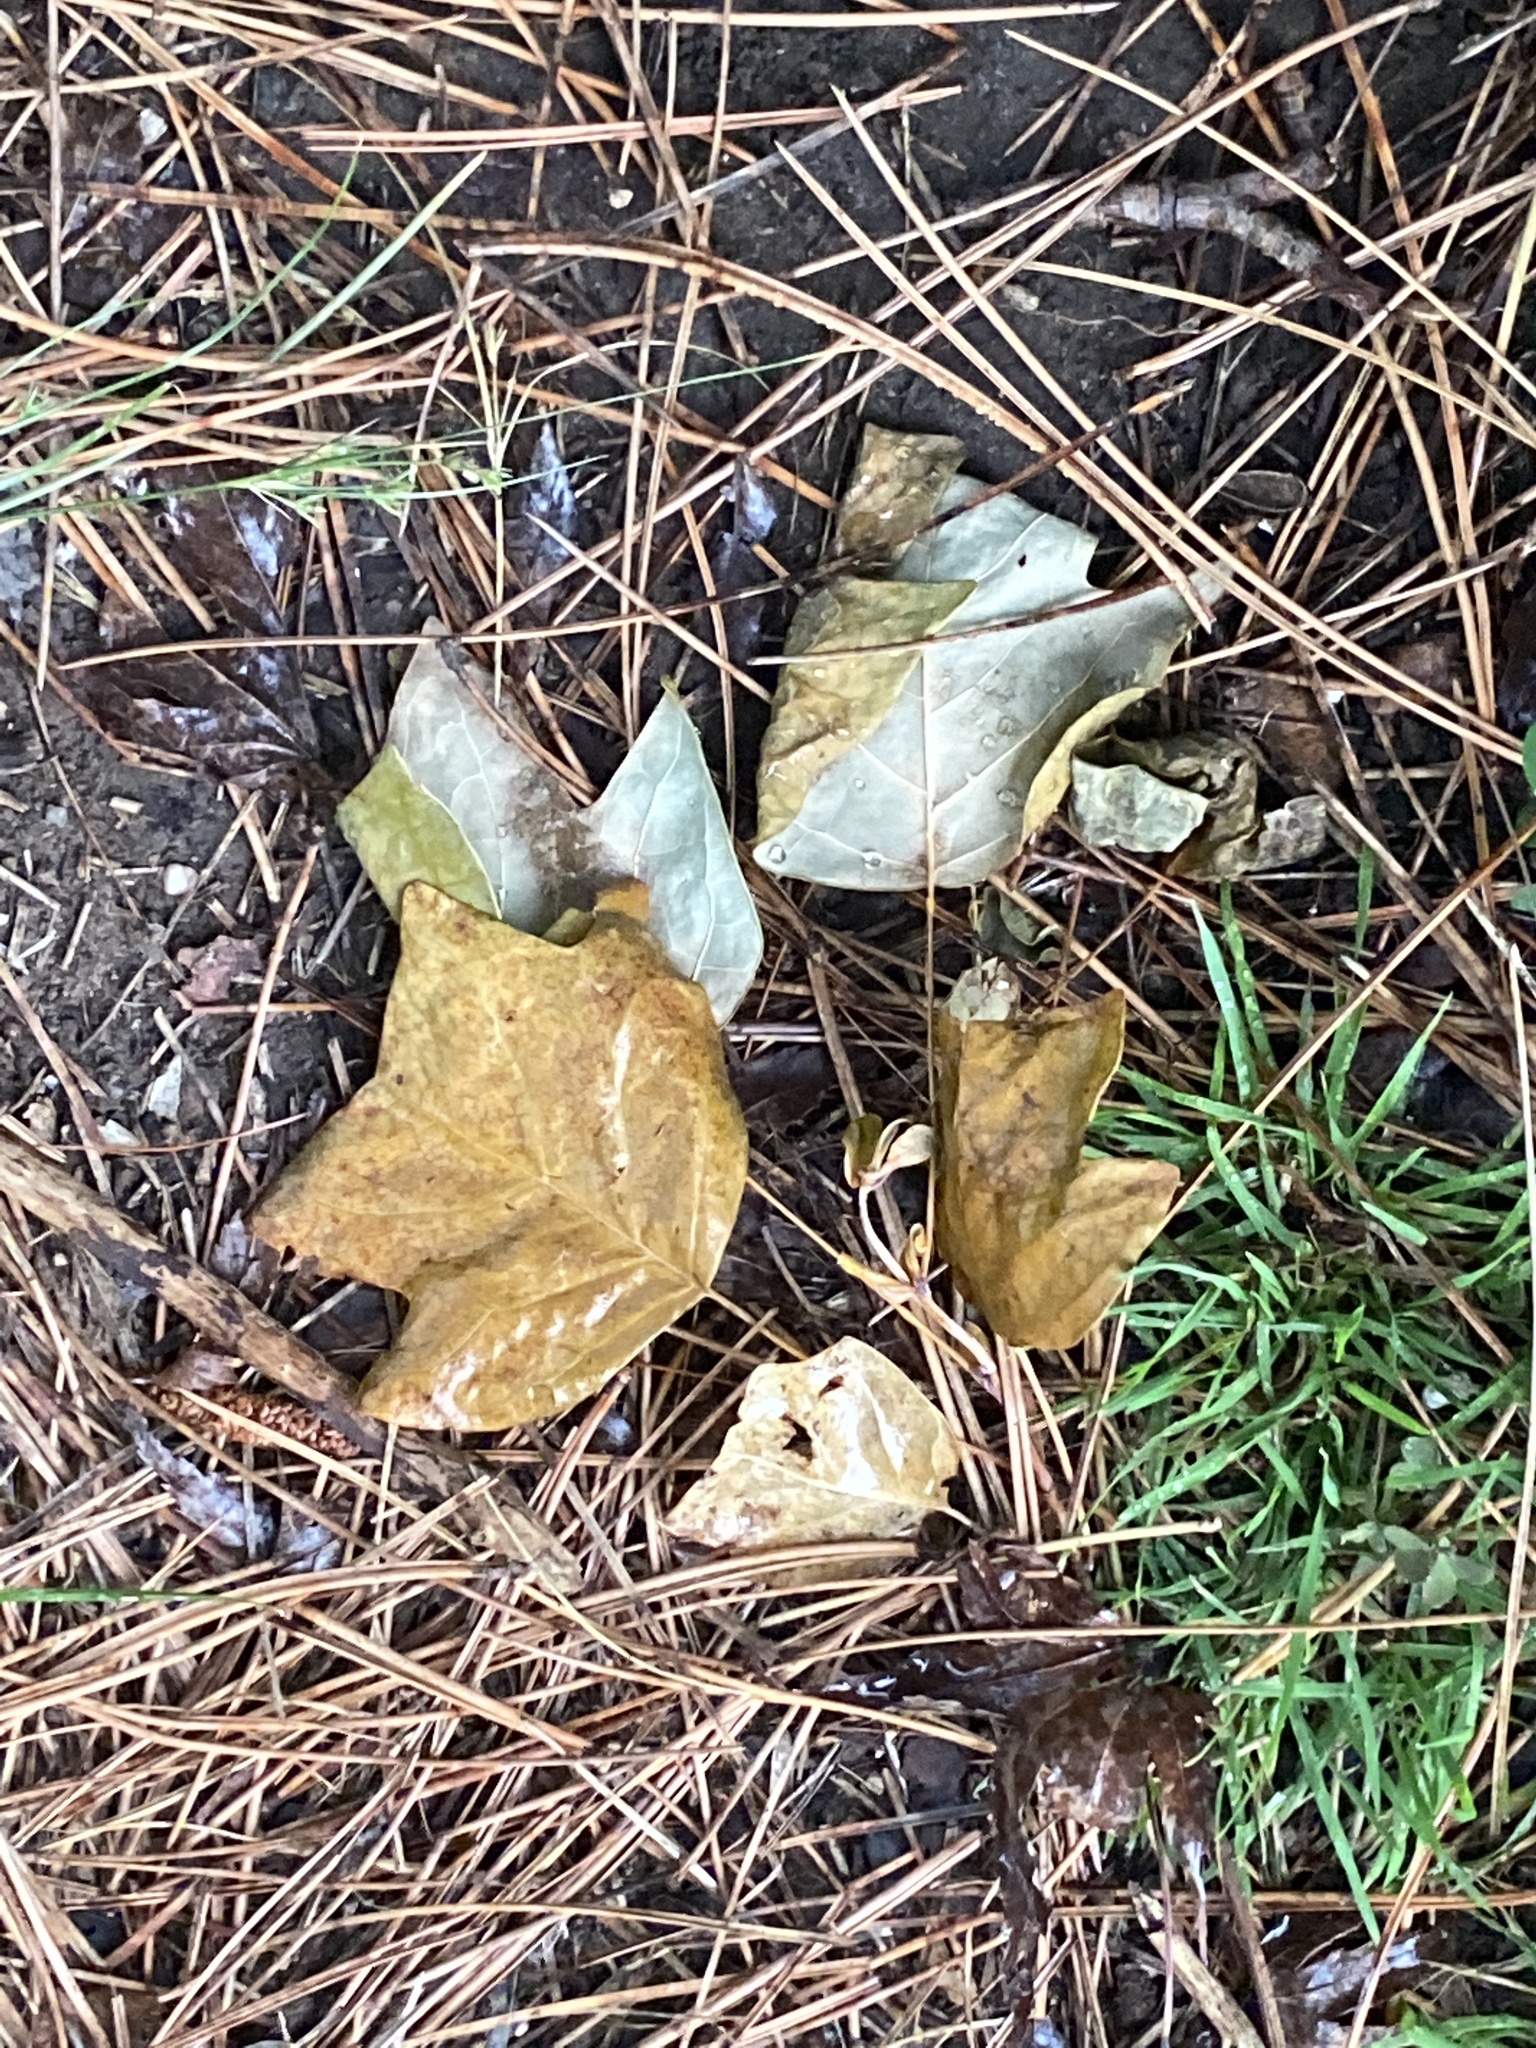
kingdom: Plantae
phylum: Tracheophyta
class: Magnoliopsida
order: Magnoliales
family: Magnoliaceae
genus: Liriodendron
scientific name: Liriodendron tulipifera
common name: Tulip tree
